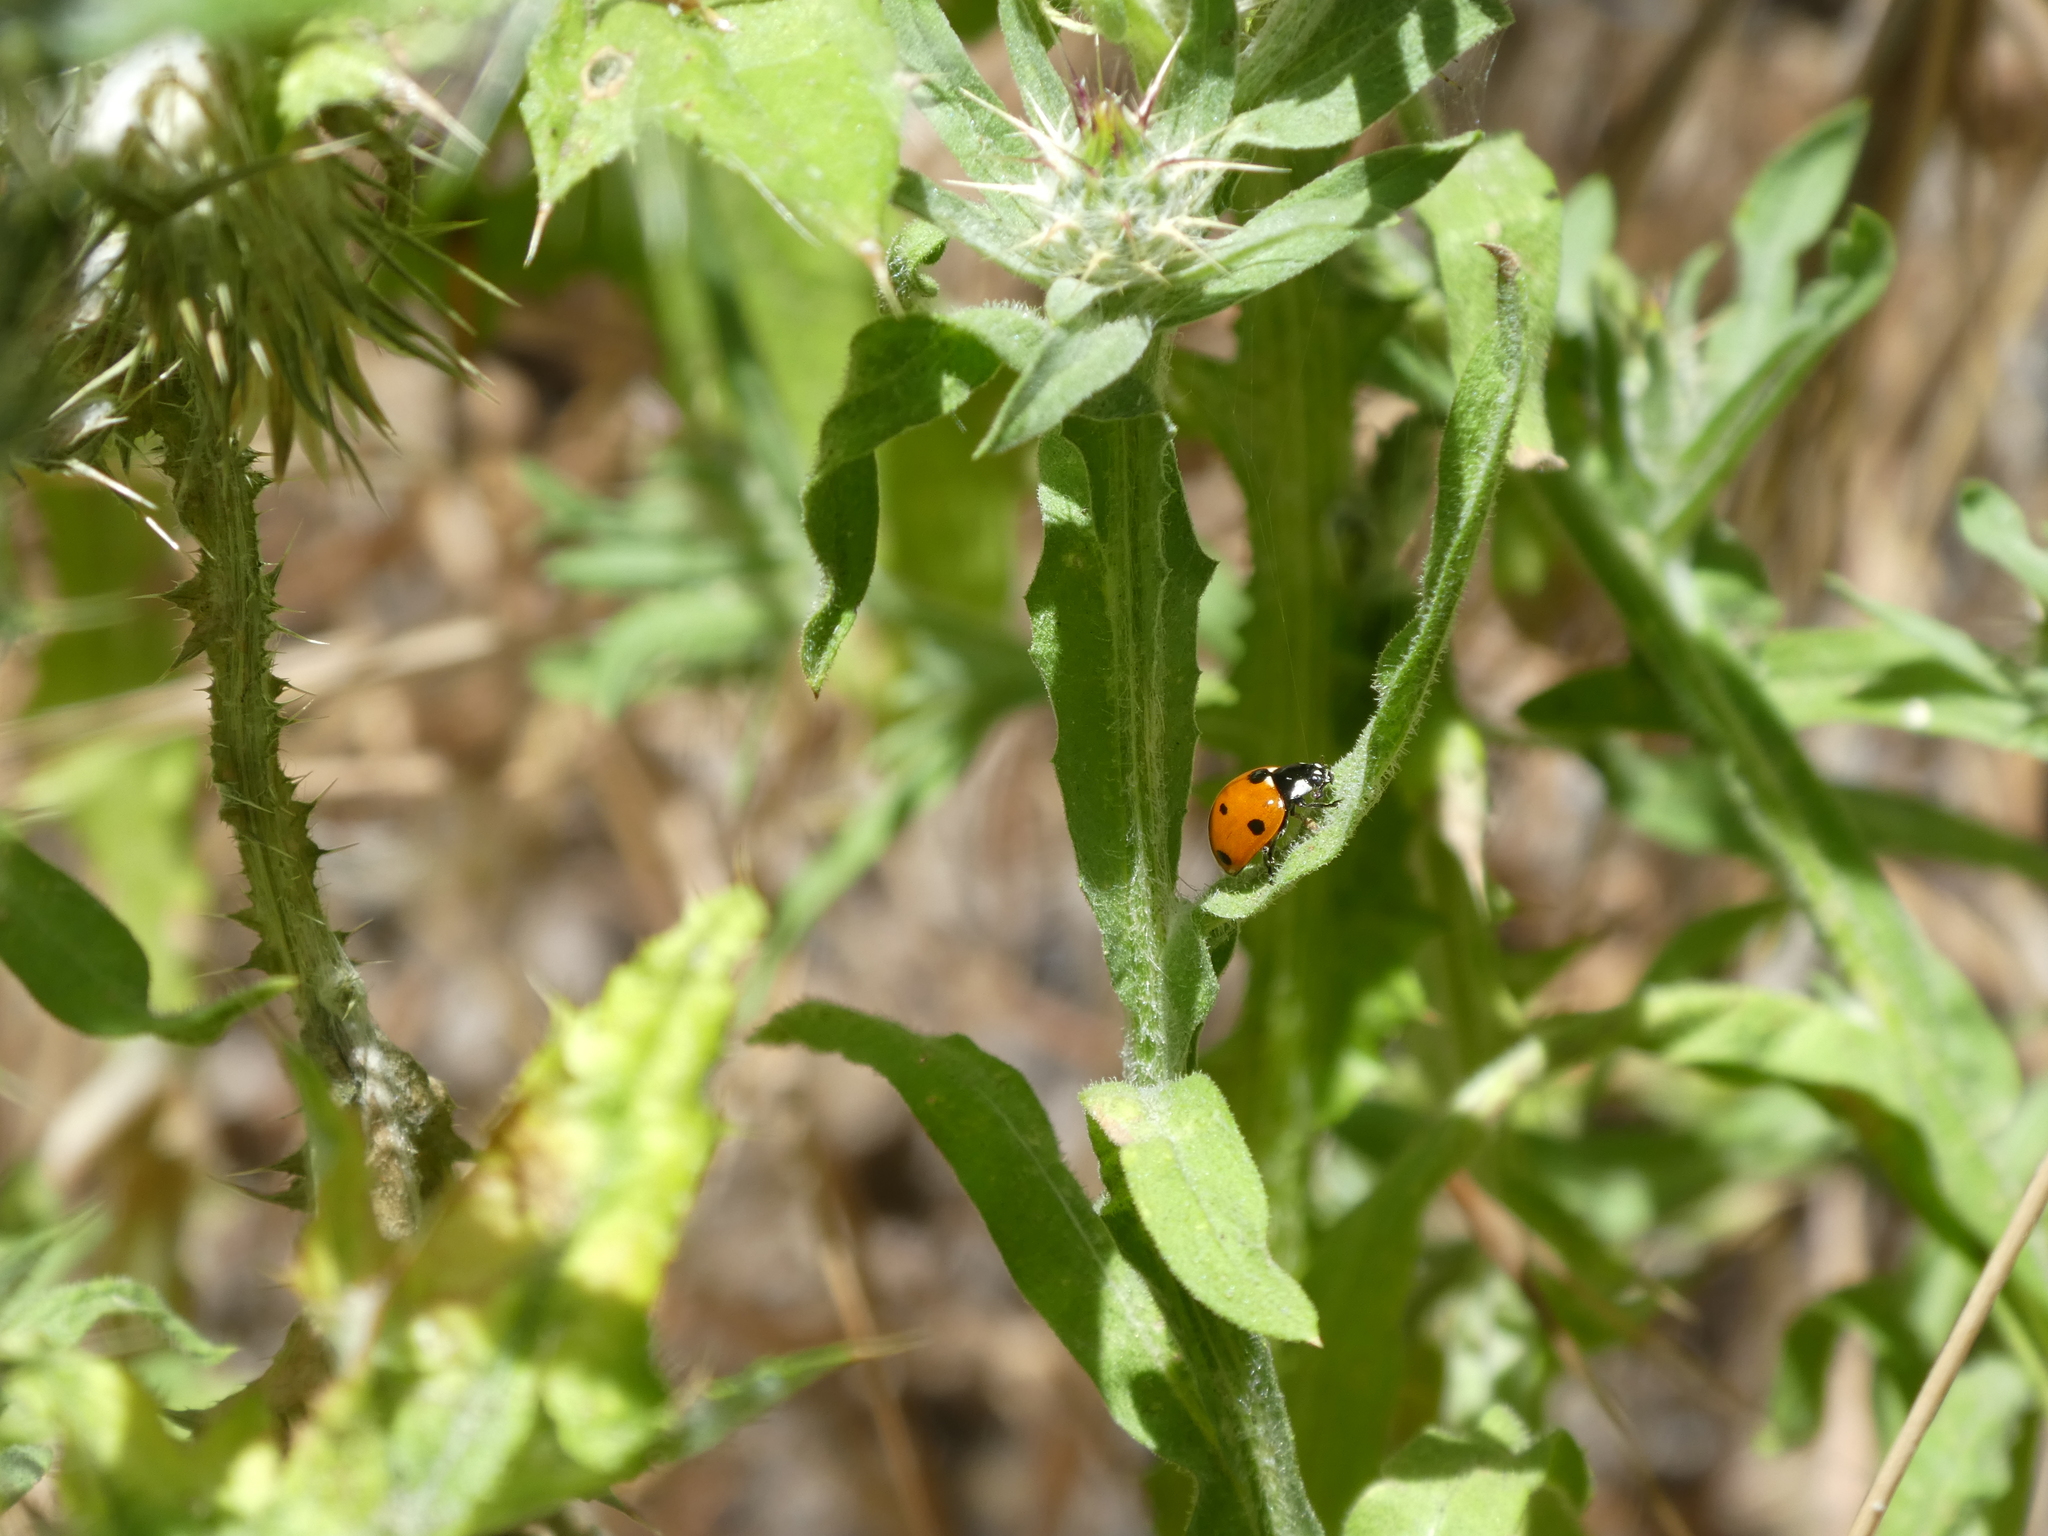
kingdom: Animalia
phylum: Arthropoda
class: Insecta
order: Coleoptera
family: Coccinellidae
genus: Coccinella
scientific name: Coccinella septempunctata
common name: Sevenspotted lady beetle
